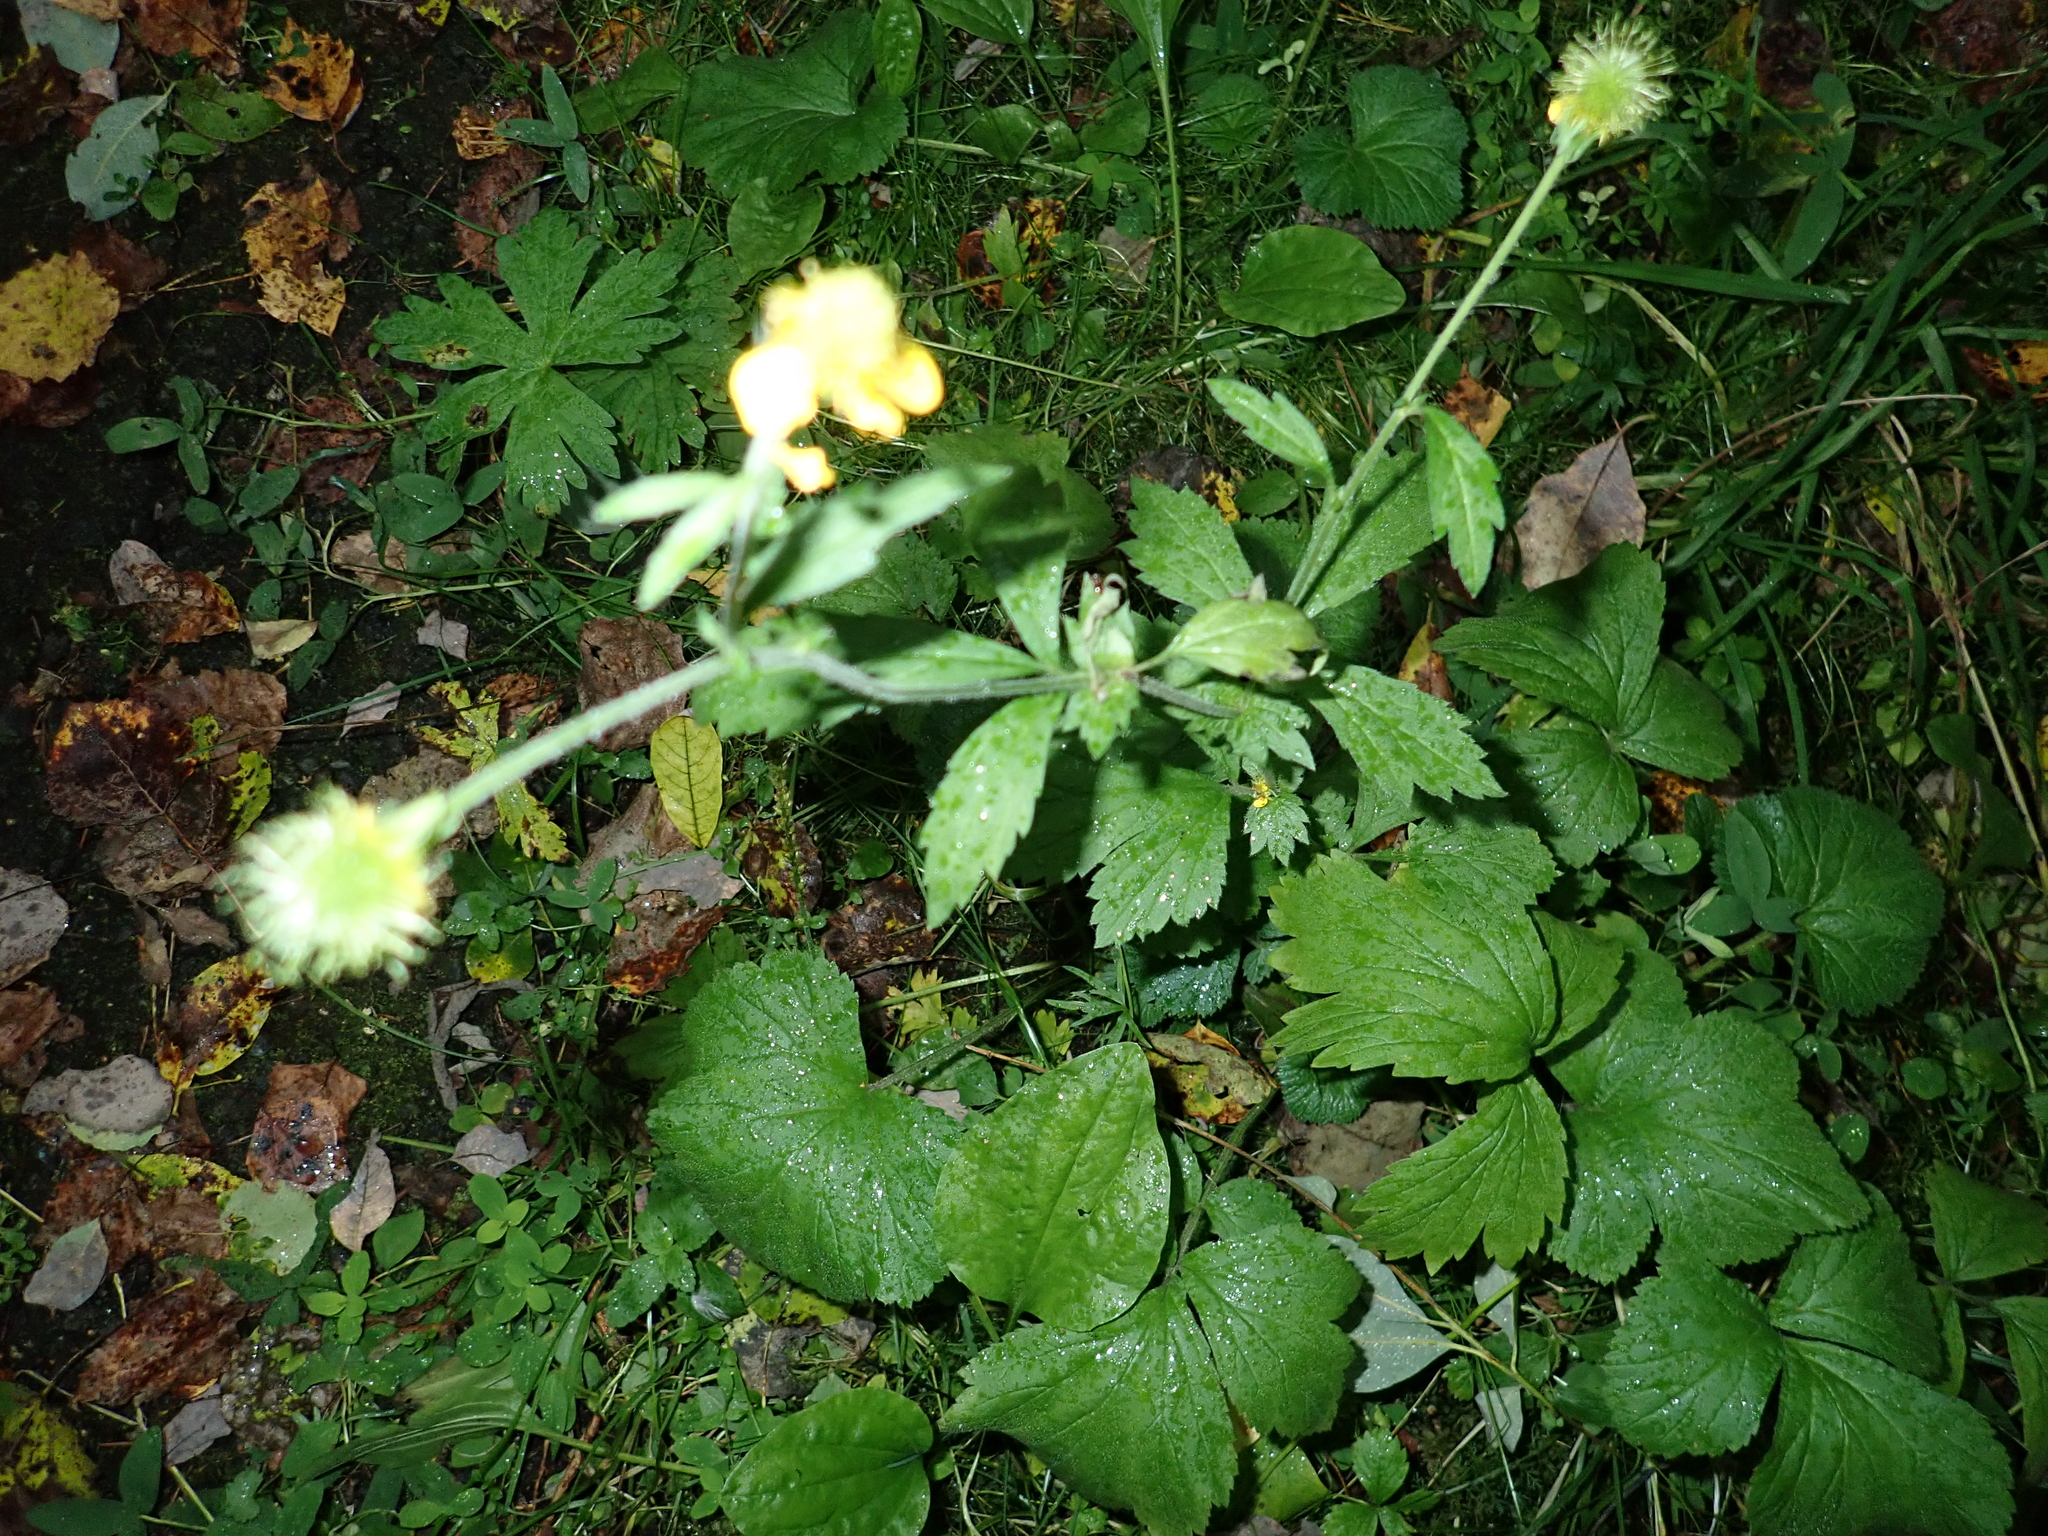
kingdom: Plantae
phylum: Tracheophyta
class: Magnoliopsida
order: Rosales
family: Rosaceae
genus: Geum
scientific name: Geum aleppicum
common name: Yellow avens
